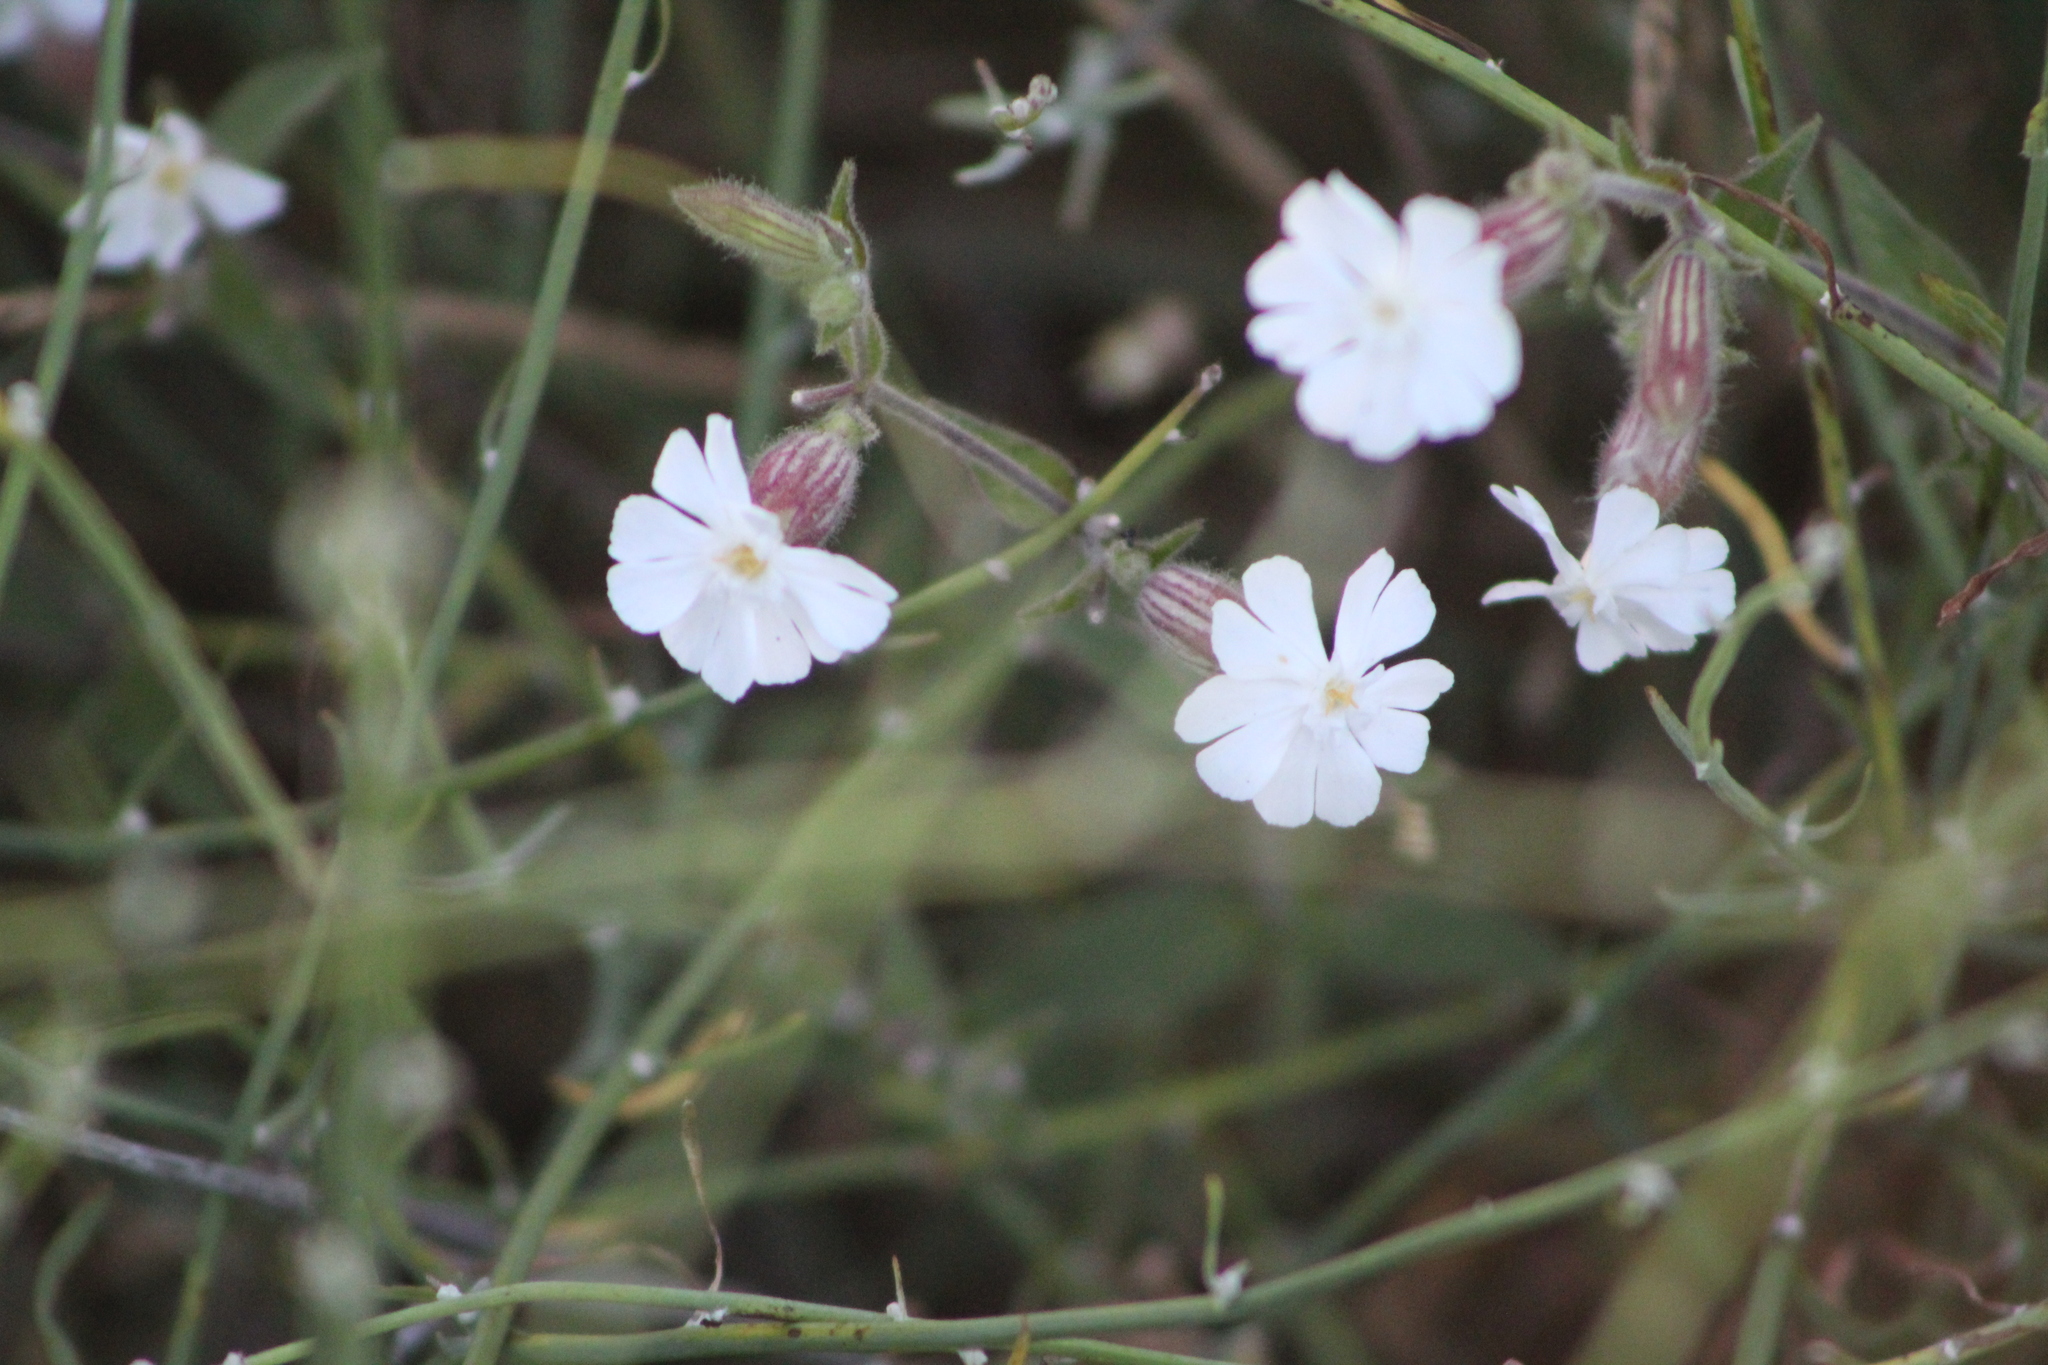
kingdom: Plantae
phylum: Tracheophyta
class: Magnoliopsida
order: Caryophyllales
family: Caryophyllaceae
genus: Silene
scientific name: Silene latifolia
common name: White campion
